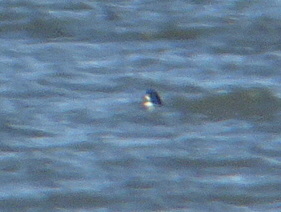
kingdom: Animalia
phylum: Chordata
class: Aves
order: Anseriformes
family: Anatidae
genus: Bucephala
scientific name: Bucephala clangula
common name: Common goldeneye
